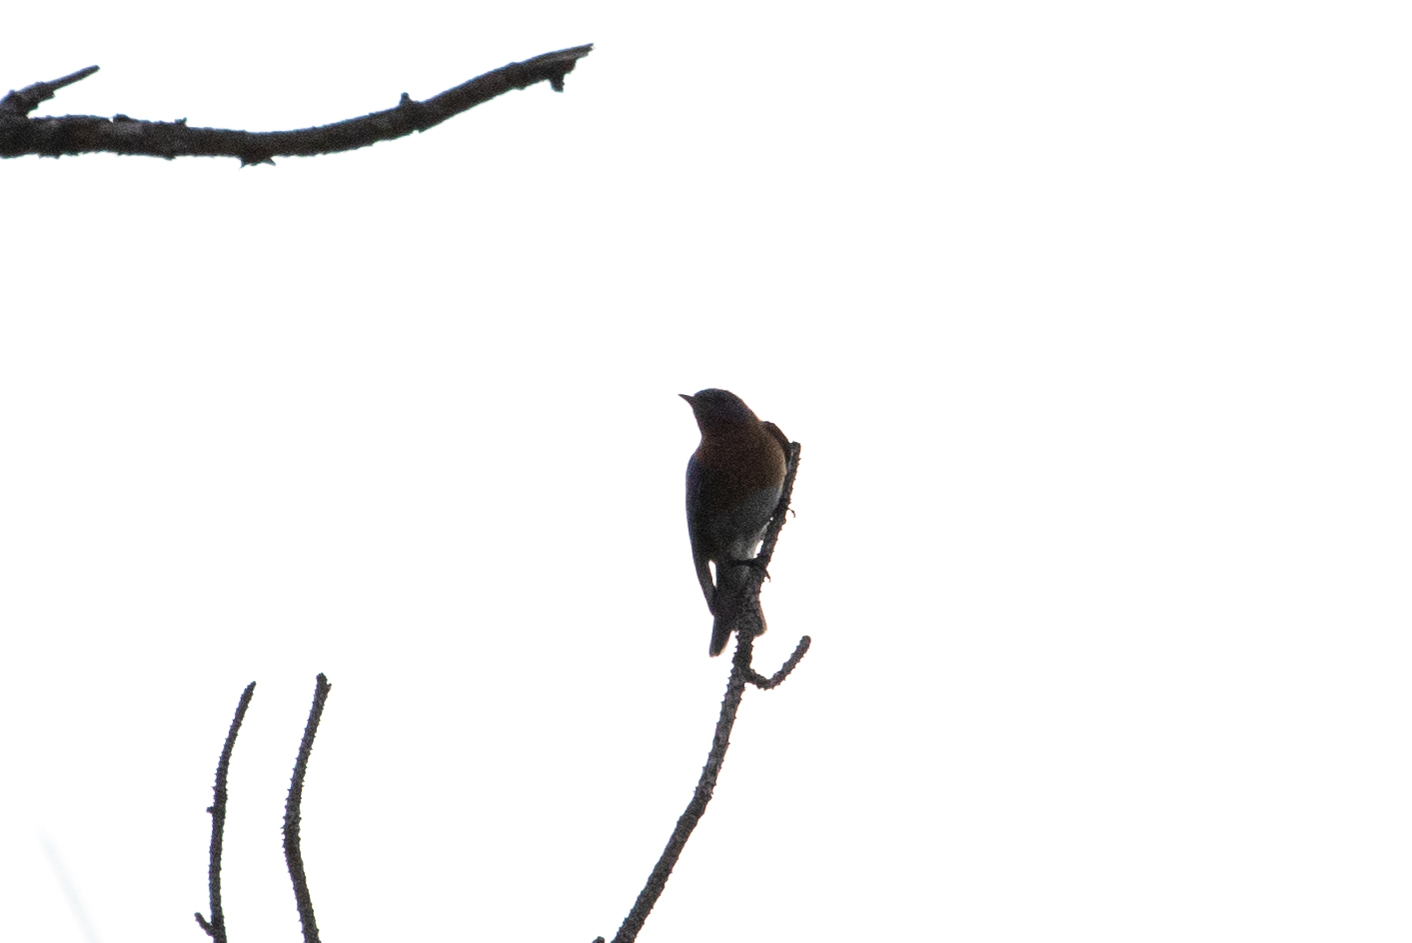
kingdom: Animalia
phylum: Chordata
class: Aves
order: Passeriformes
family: Turdidae
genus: Sialia
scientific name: Sialia sialis
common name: Eastern bluebird
